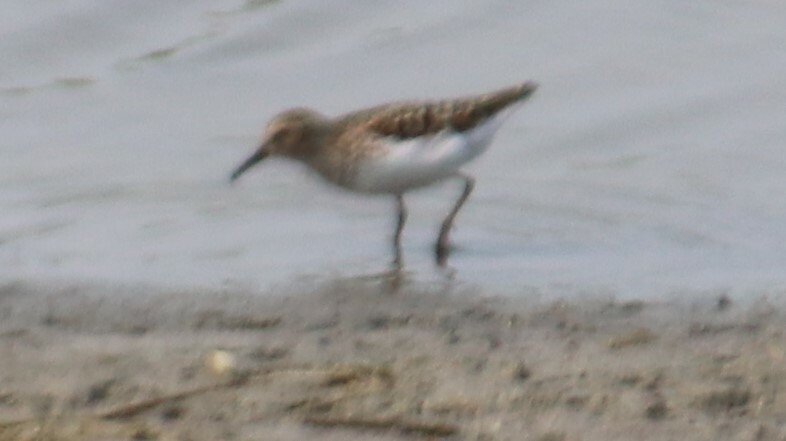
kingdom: Animalia
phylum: Chordata
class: Aves
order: Charadriiformes
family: Scolopacidae
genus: Calidris
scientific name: Calidris minutilla
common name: Least sandpiper
